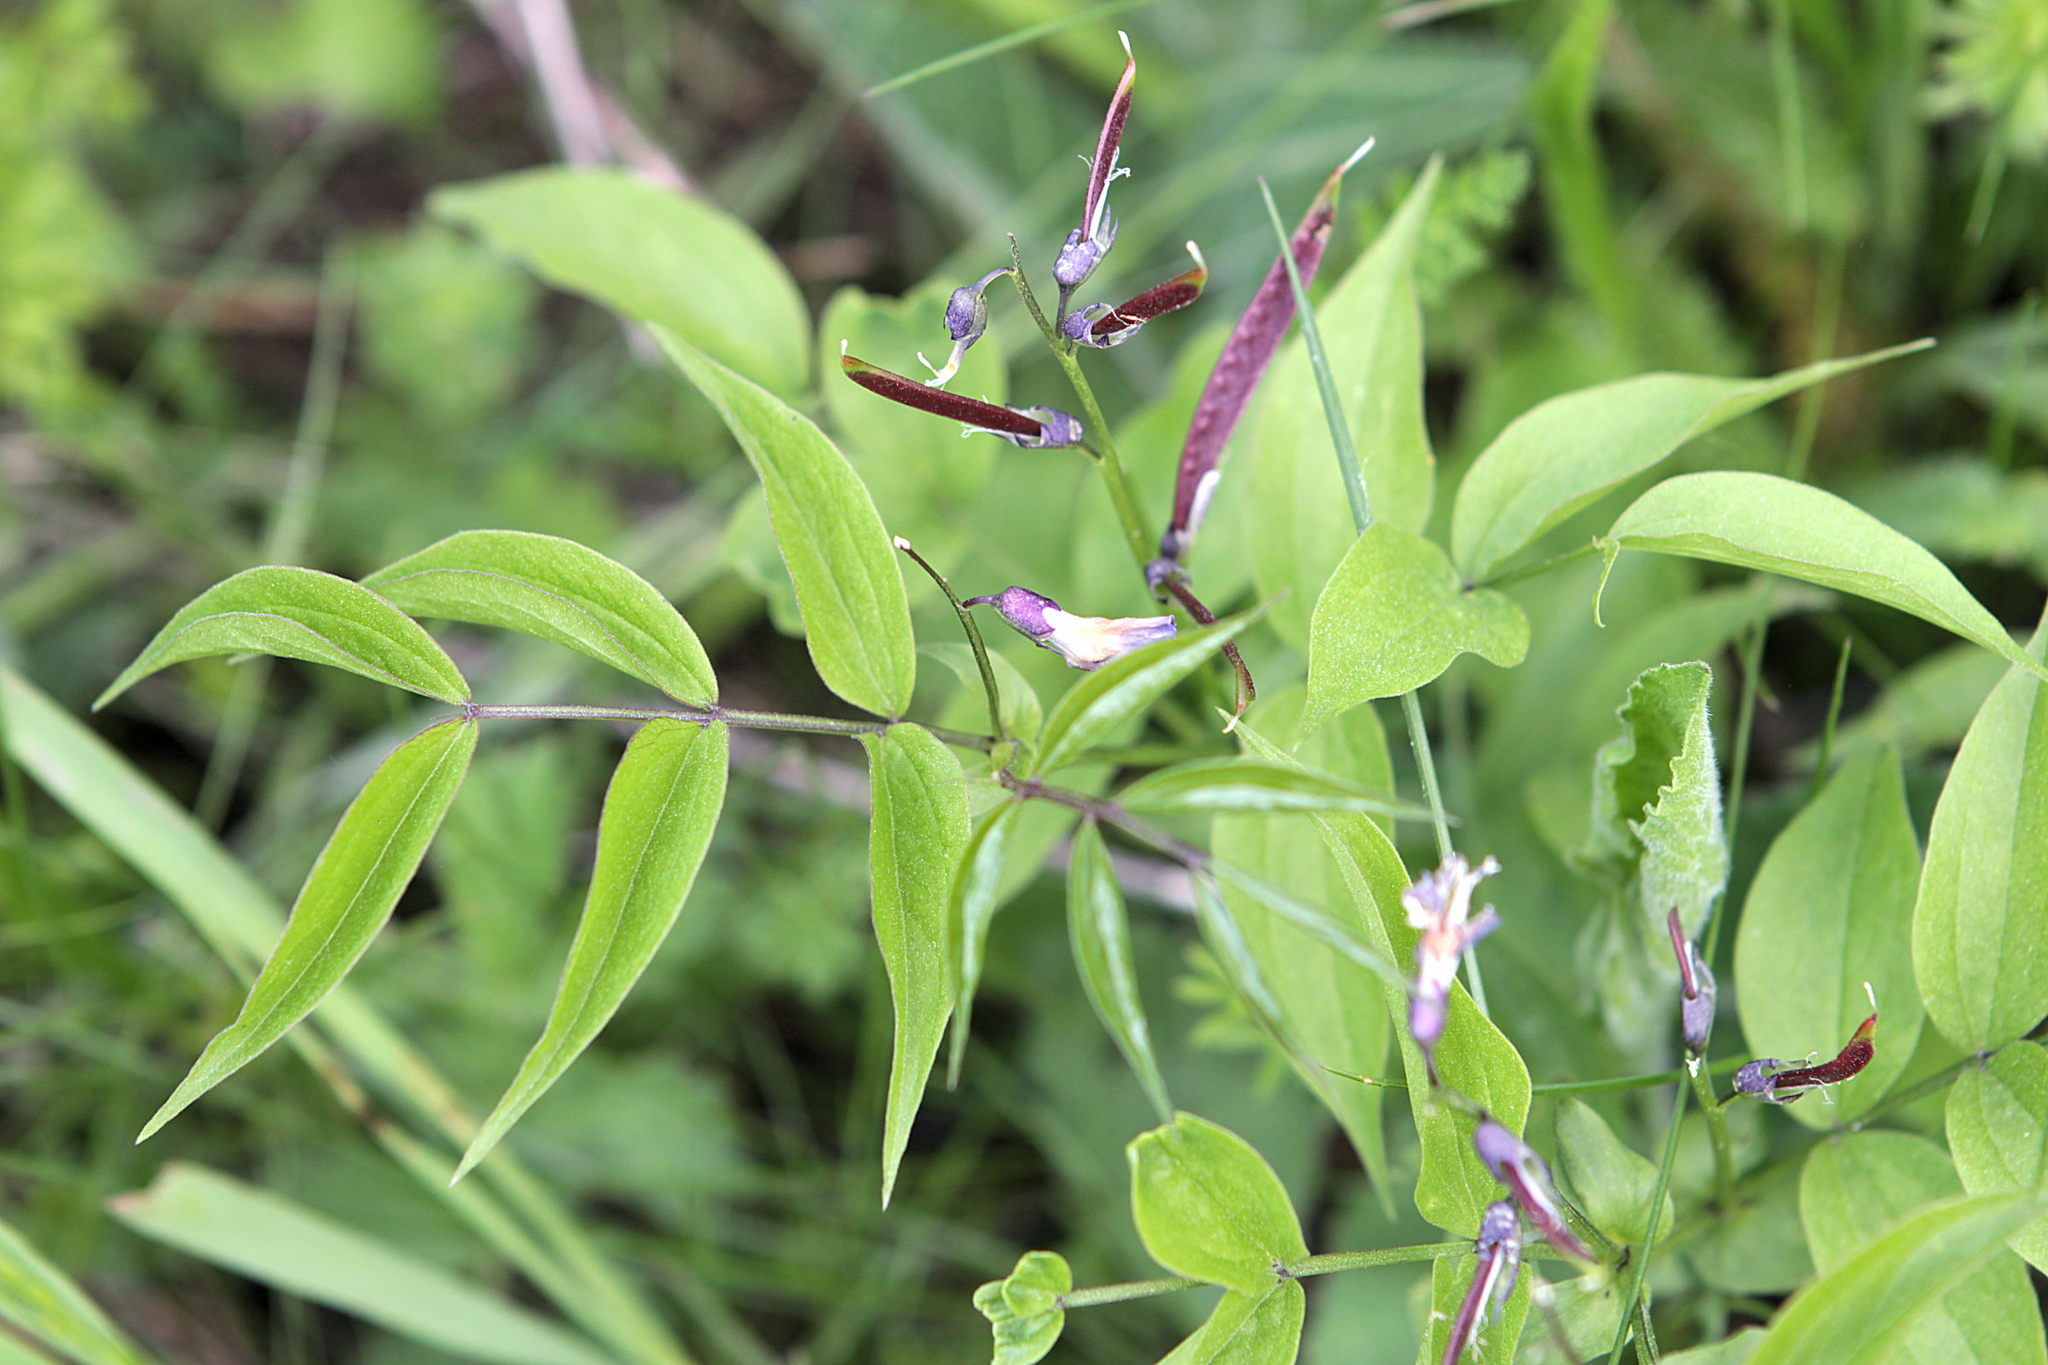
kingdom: Plantae
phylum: Tracheophyta
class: Magnoliopsida
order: Fabales
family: Fabaceae
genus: Lathyrus
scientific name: Lathyrus vernus
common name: Spring pea
